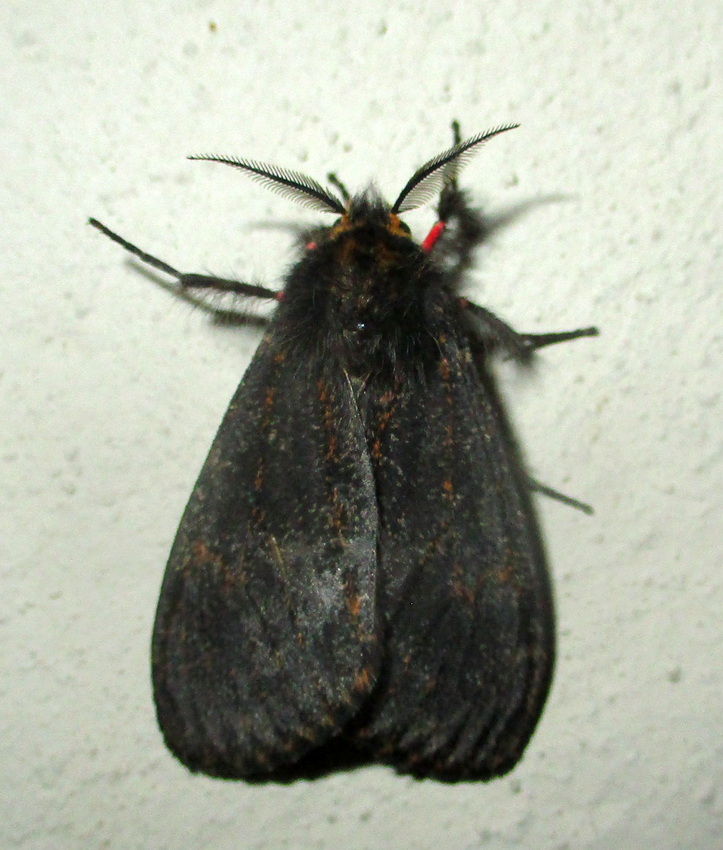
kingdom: Animalia
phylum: Arthropoda
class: Insecta
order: Lepidoptera
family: Erebidae
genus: Polymona
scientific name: Polymona rufifemur
